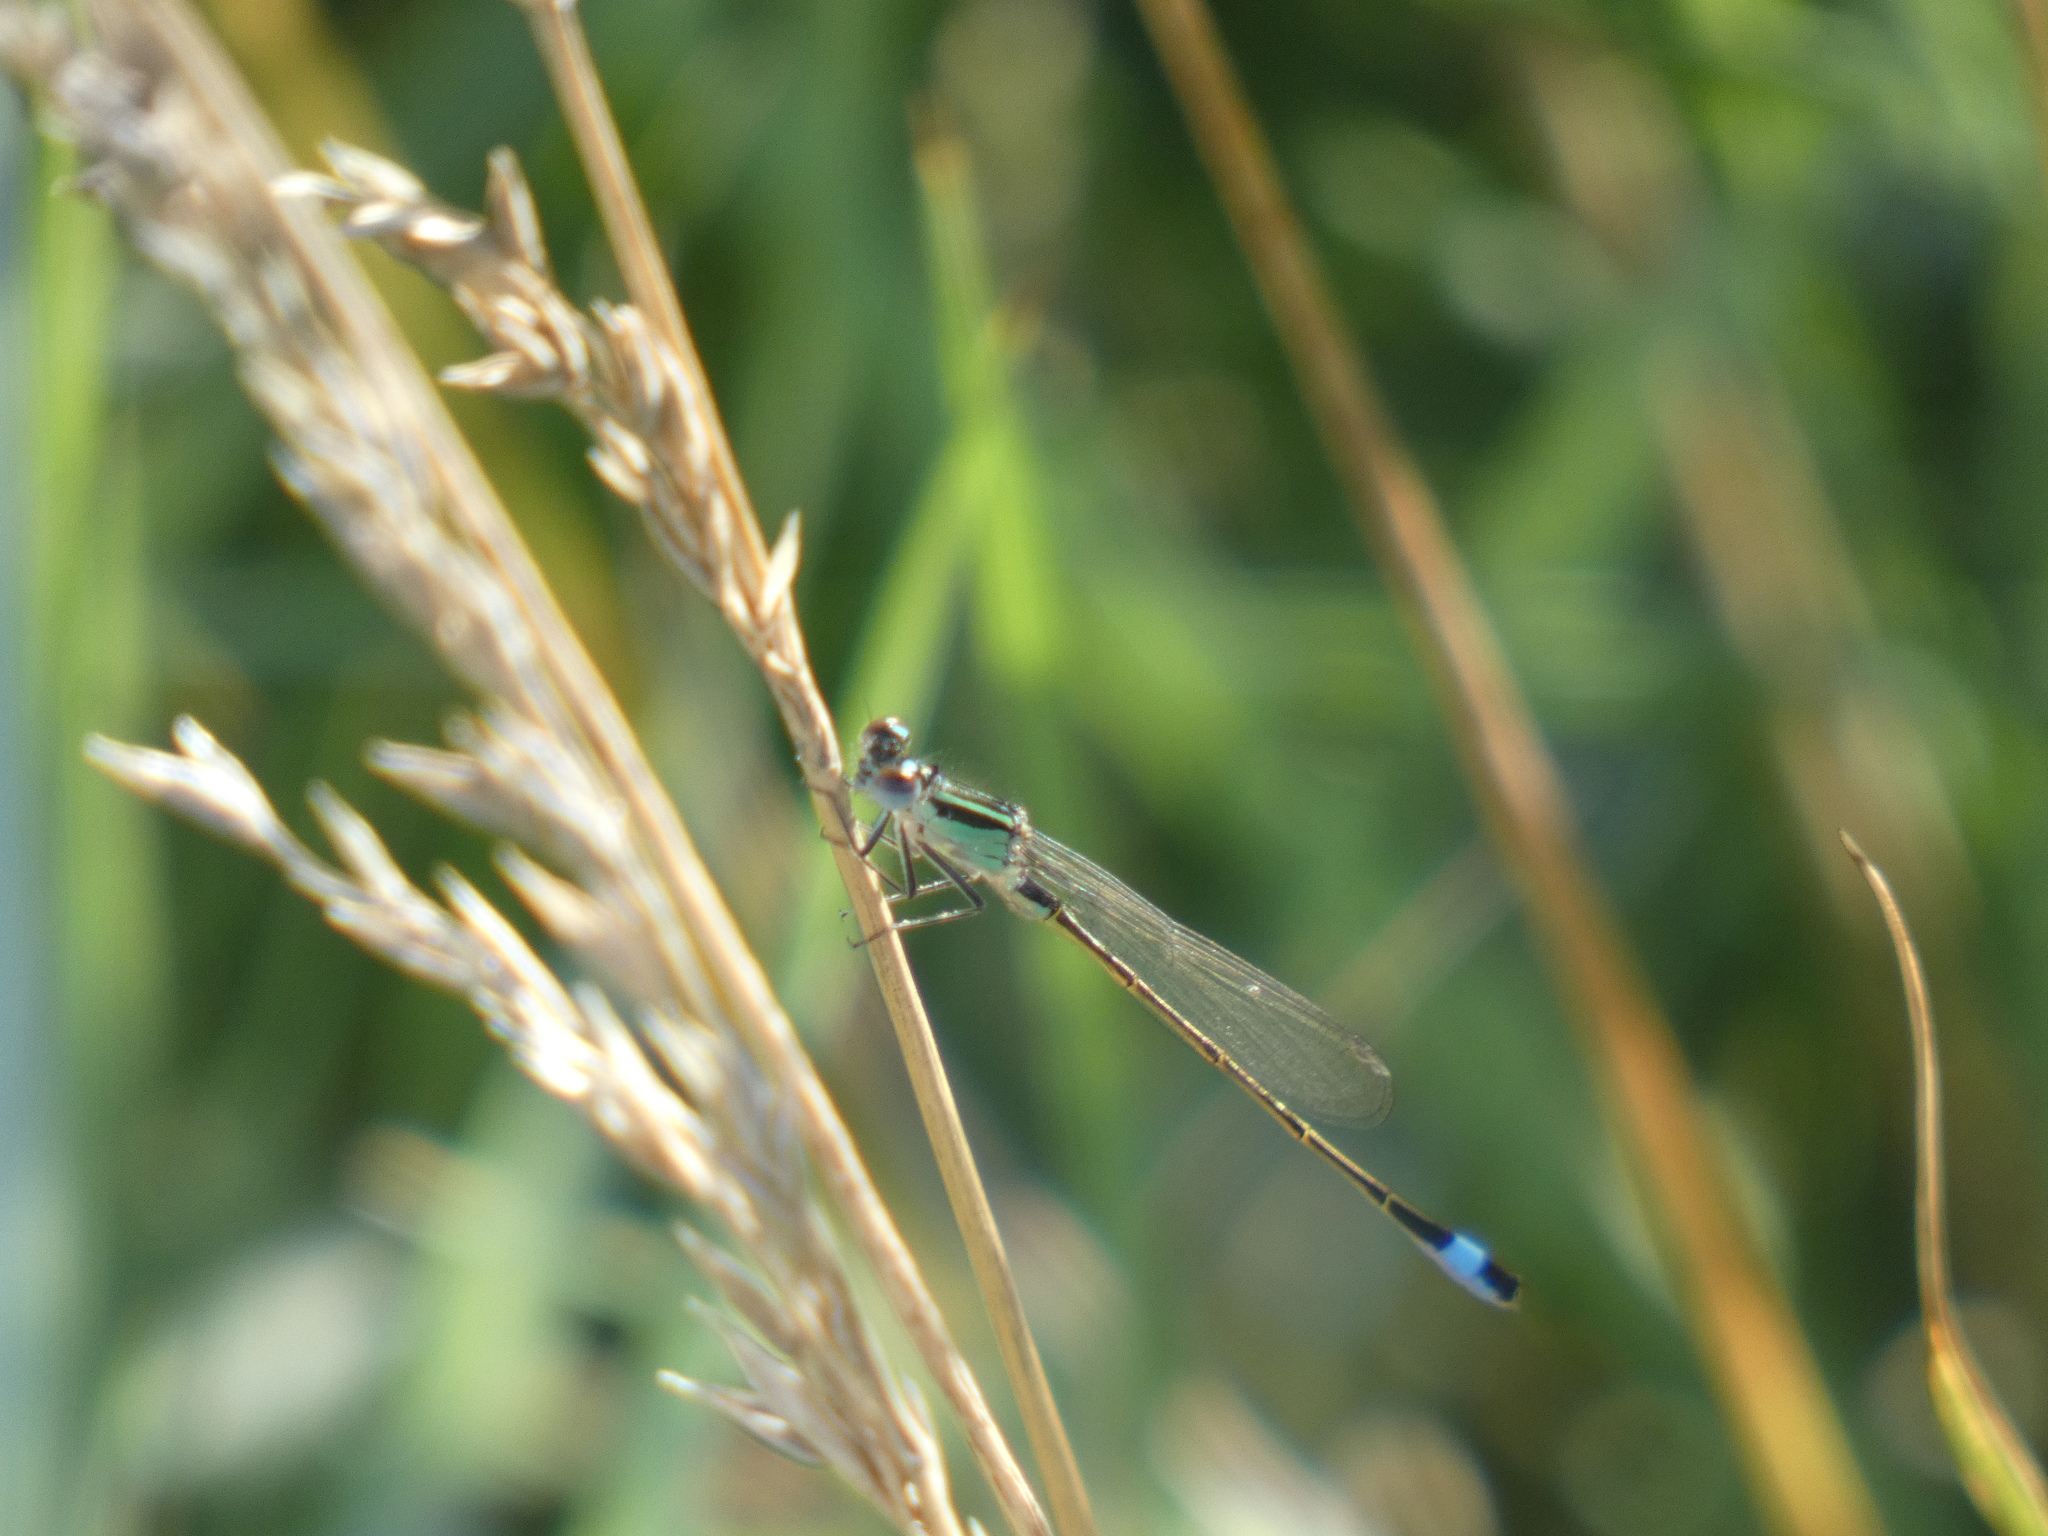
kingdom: Animalia
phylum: Arthropoda
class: Insecta
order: Odonata
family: Coenagrionidae
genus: Ischnura
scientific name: Ischnura elegans
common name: Blue-tailed damselfly
